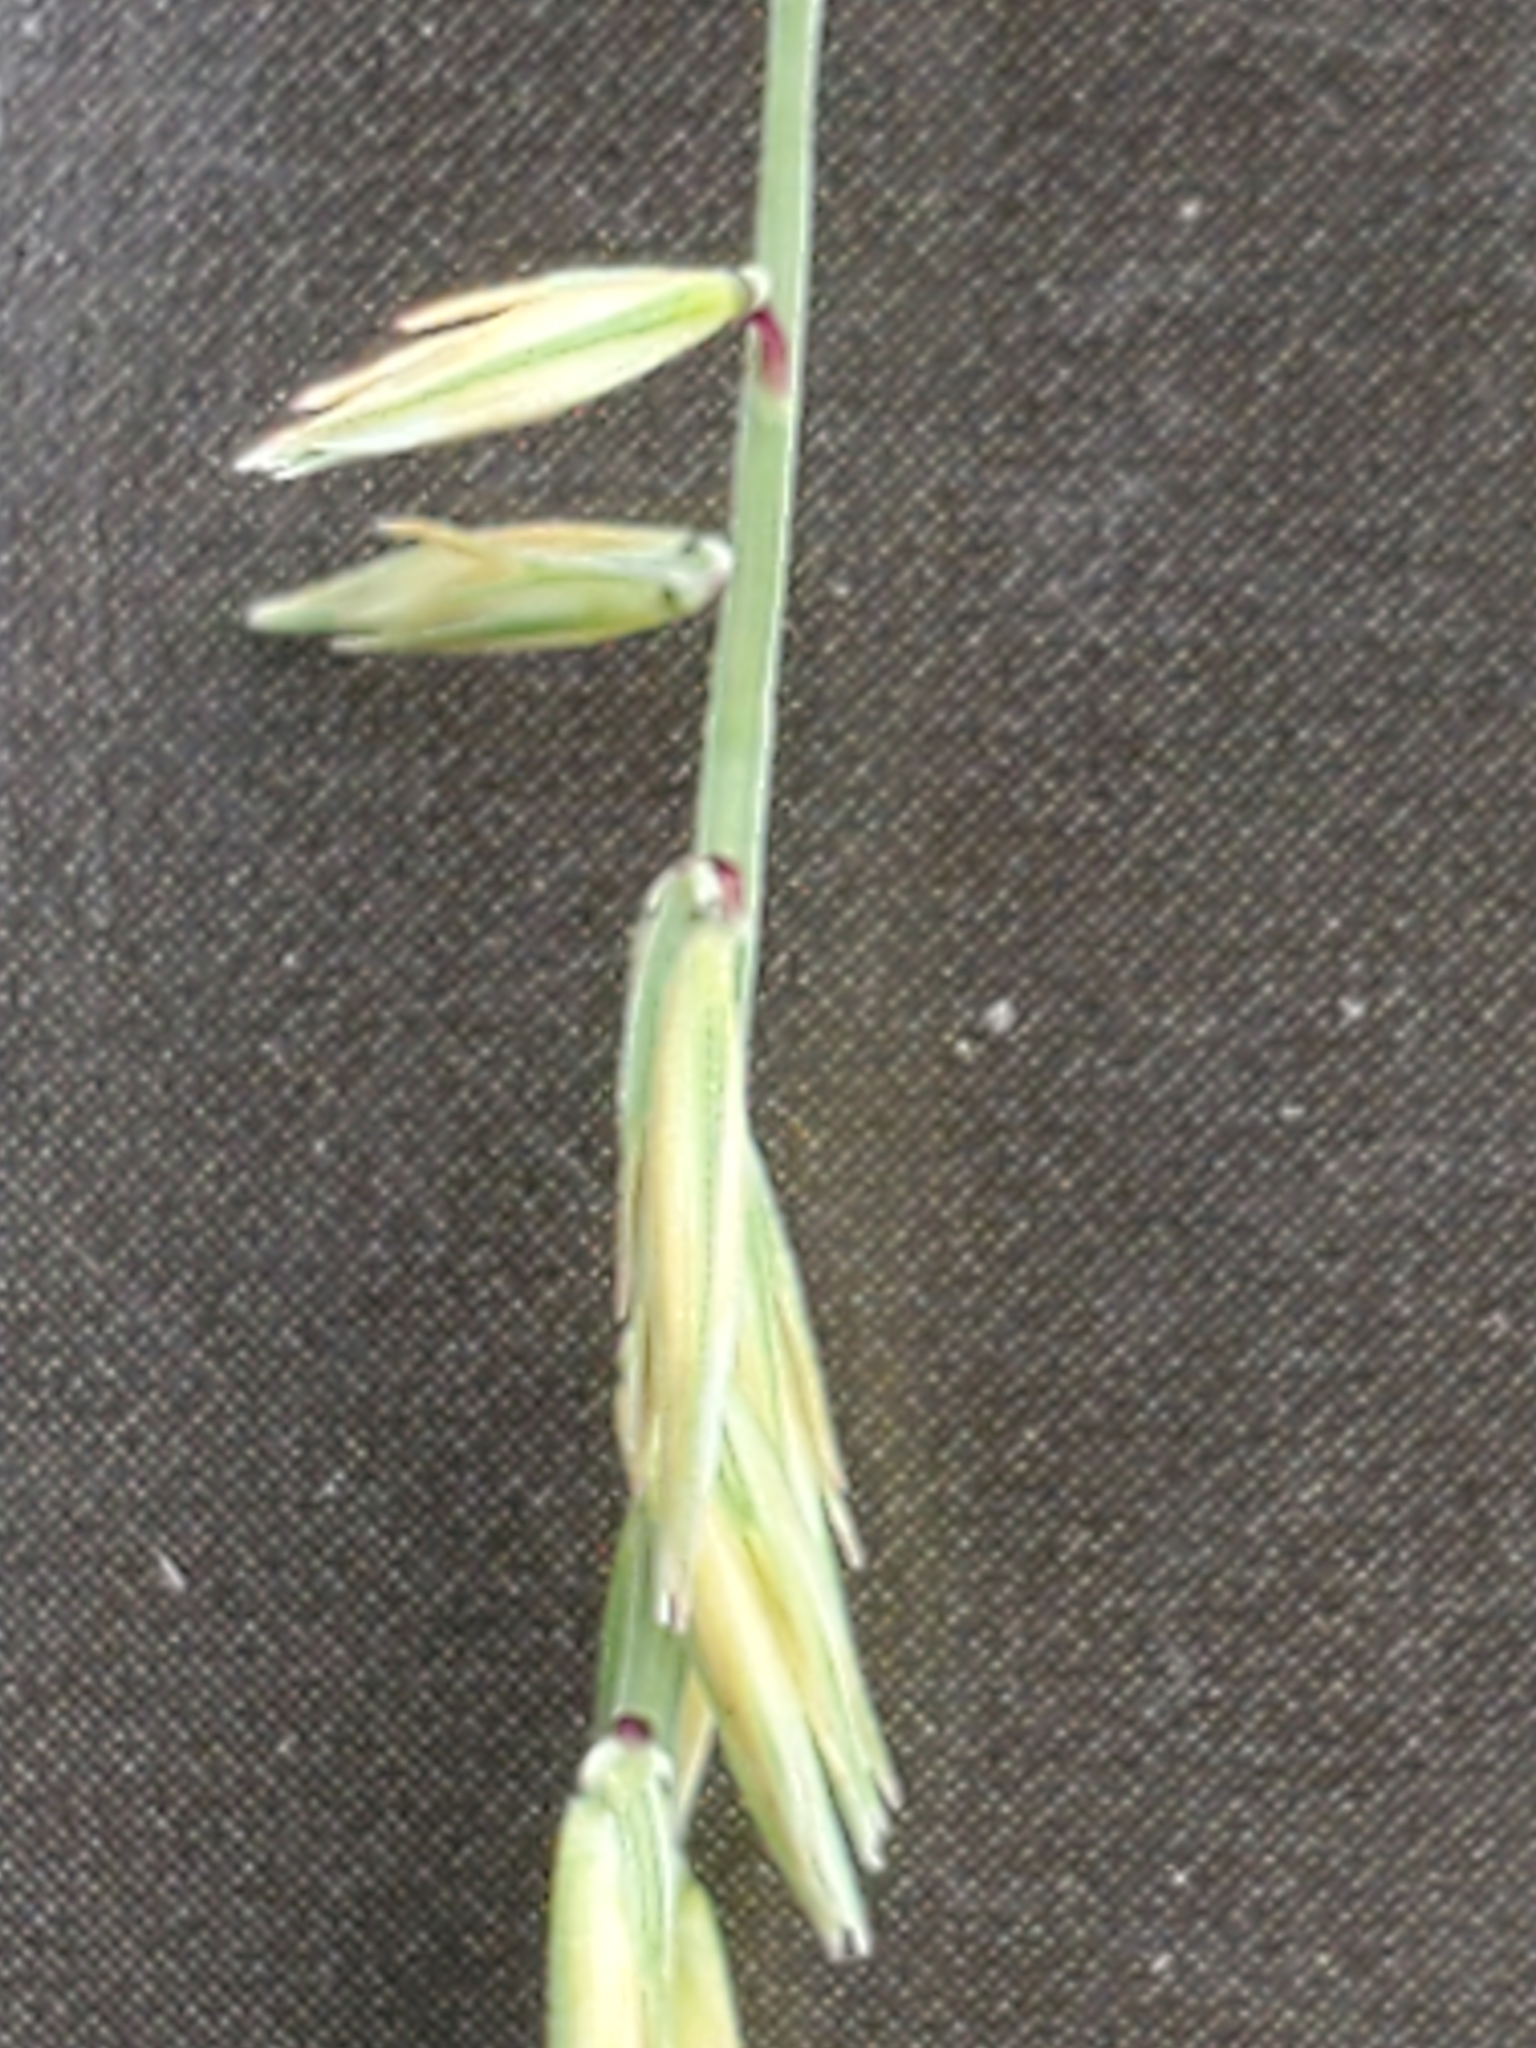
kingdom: Plantae
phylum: Tracheophyta
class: Liliopsida
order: Poales
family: Poaceae
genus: Bouteloua
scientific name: Bouteloua curtipendula
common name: Side-oats grama
